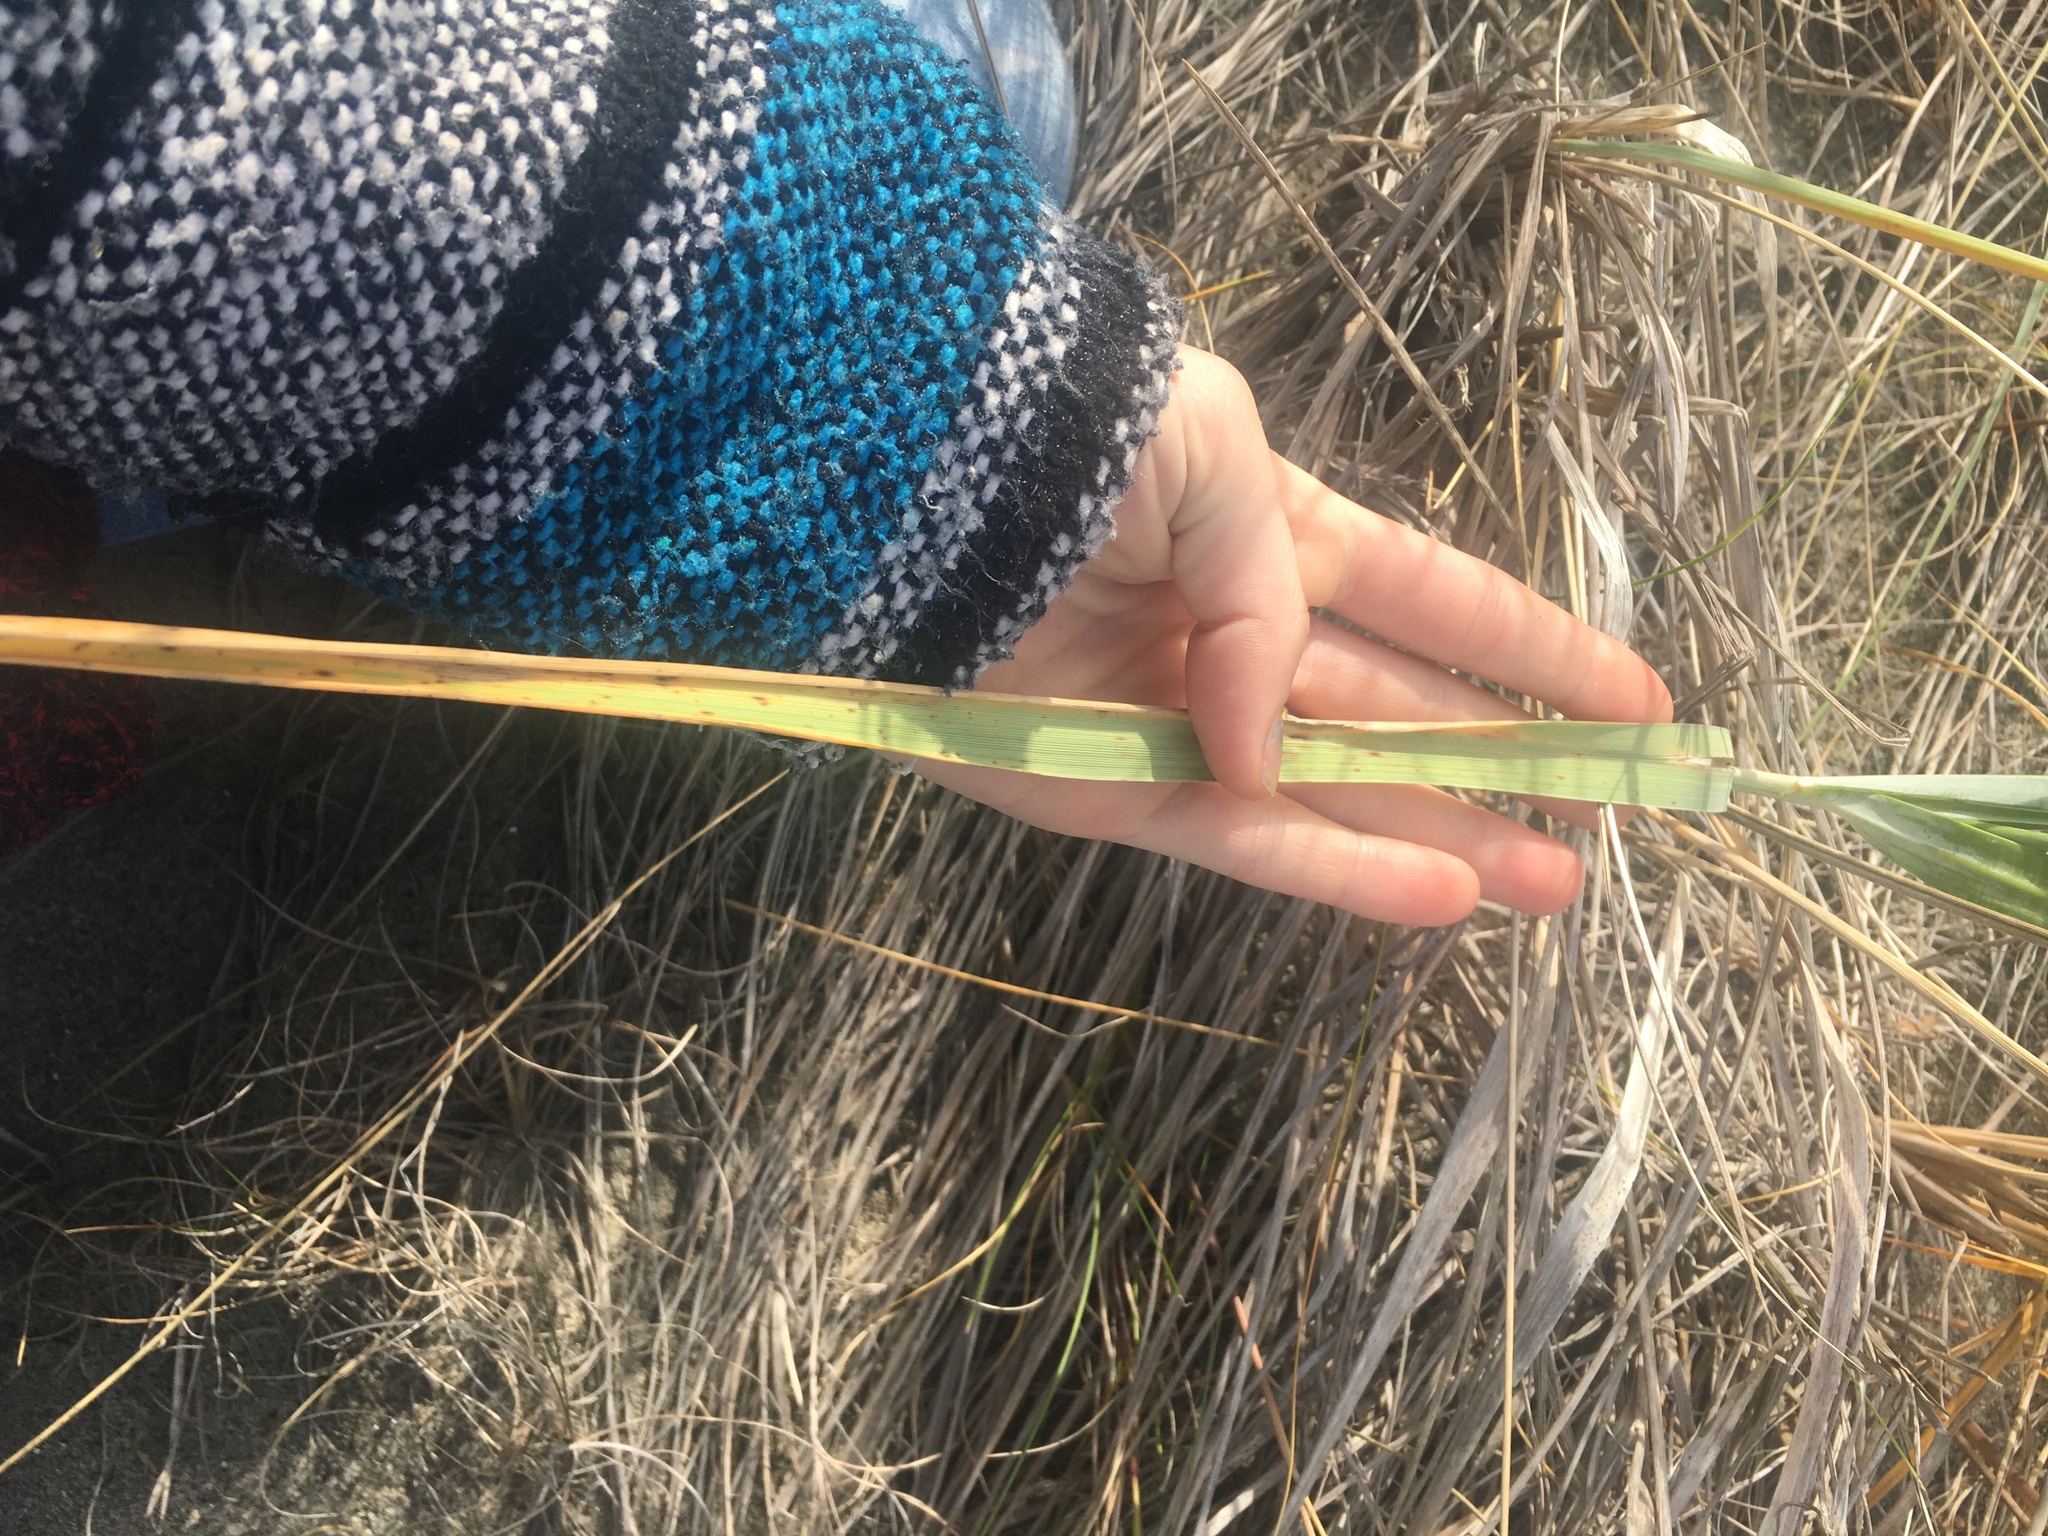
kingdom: Plantae
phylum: Tracheophyta
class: Liliopsida
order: Poales
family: Poaceae
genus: Leymus
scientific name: Leymus mollis
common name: American dune grass
